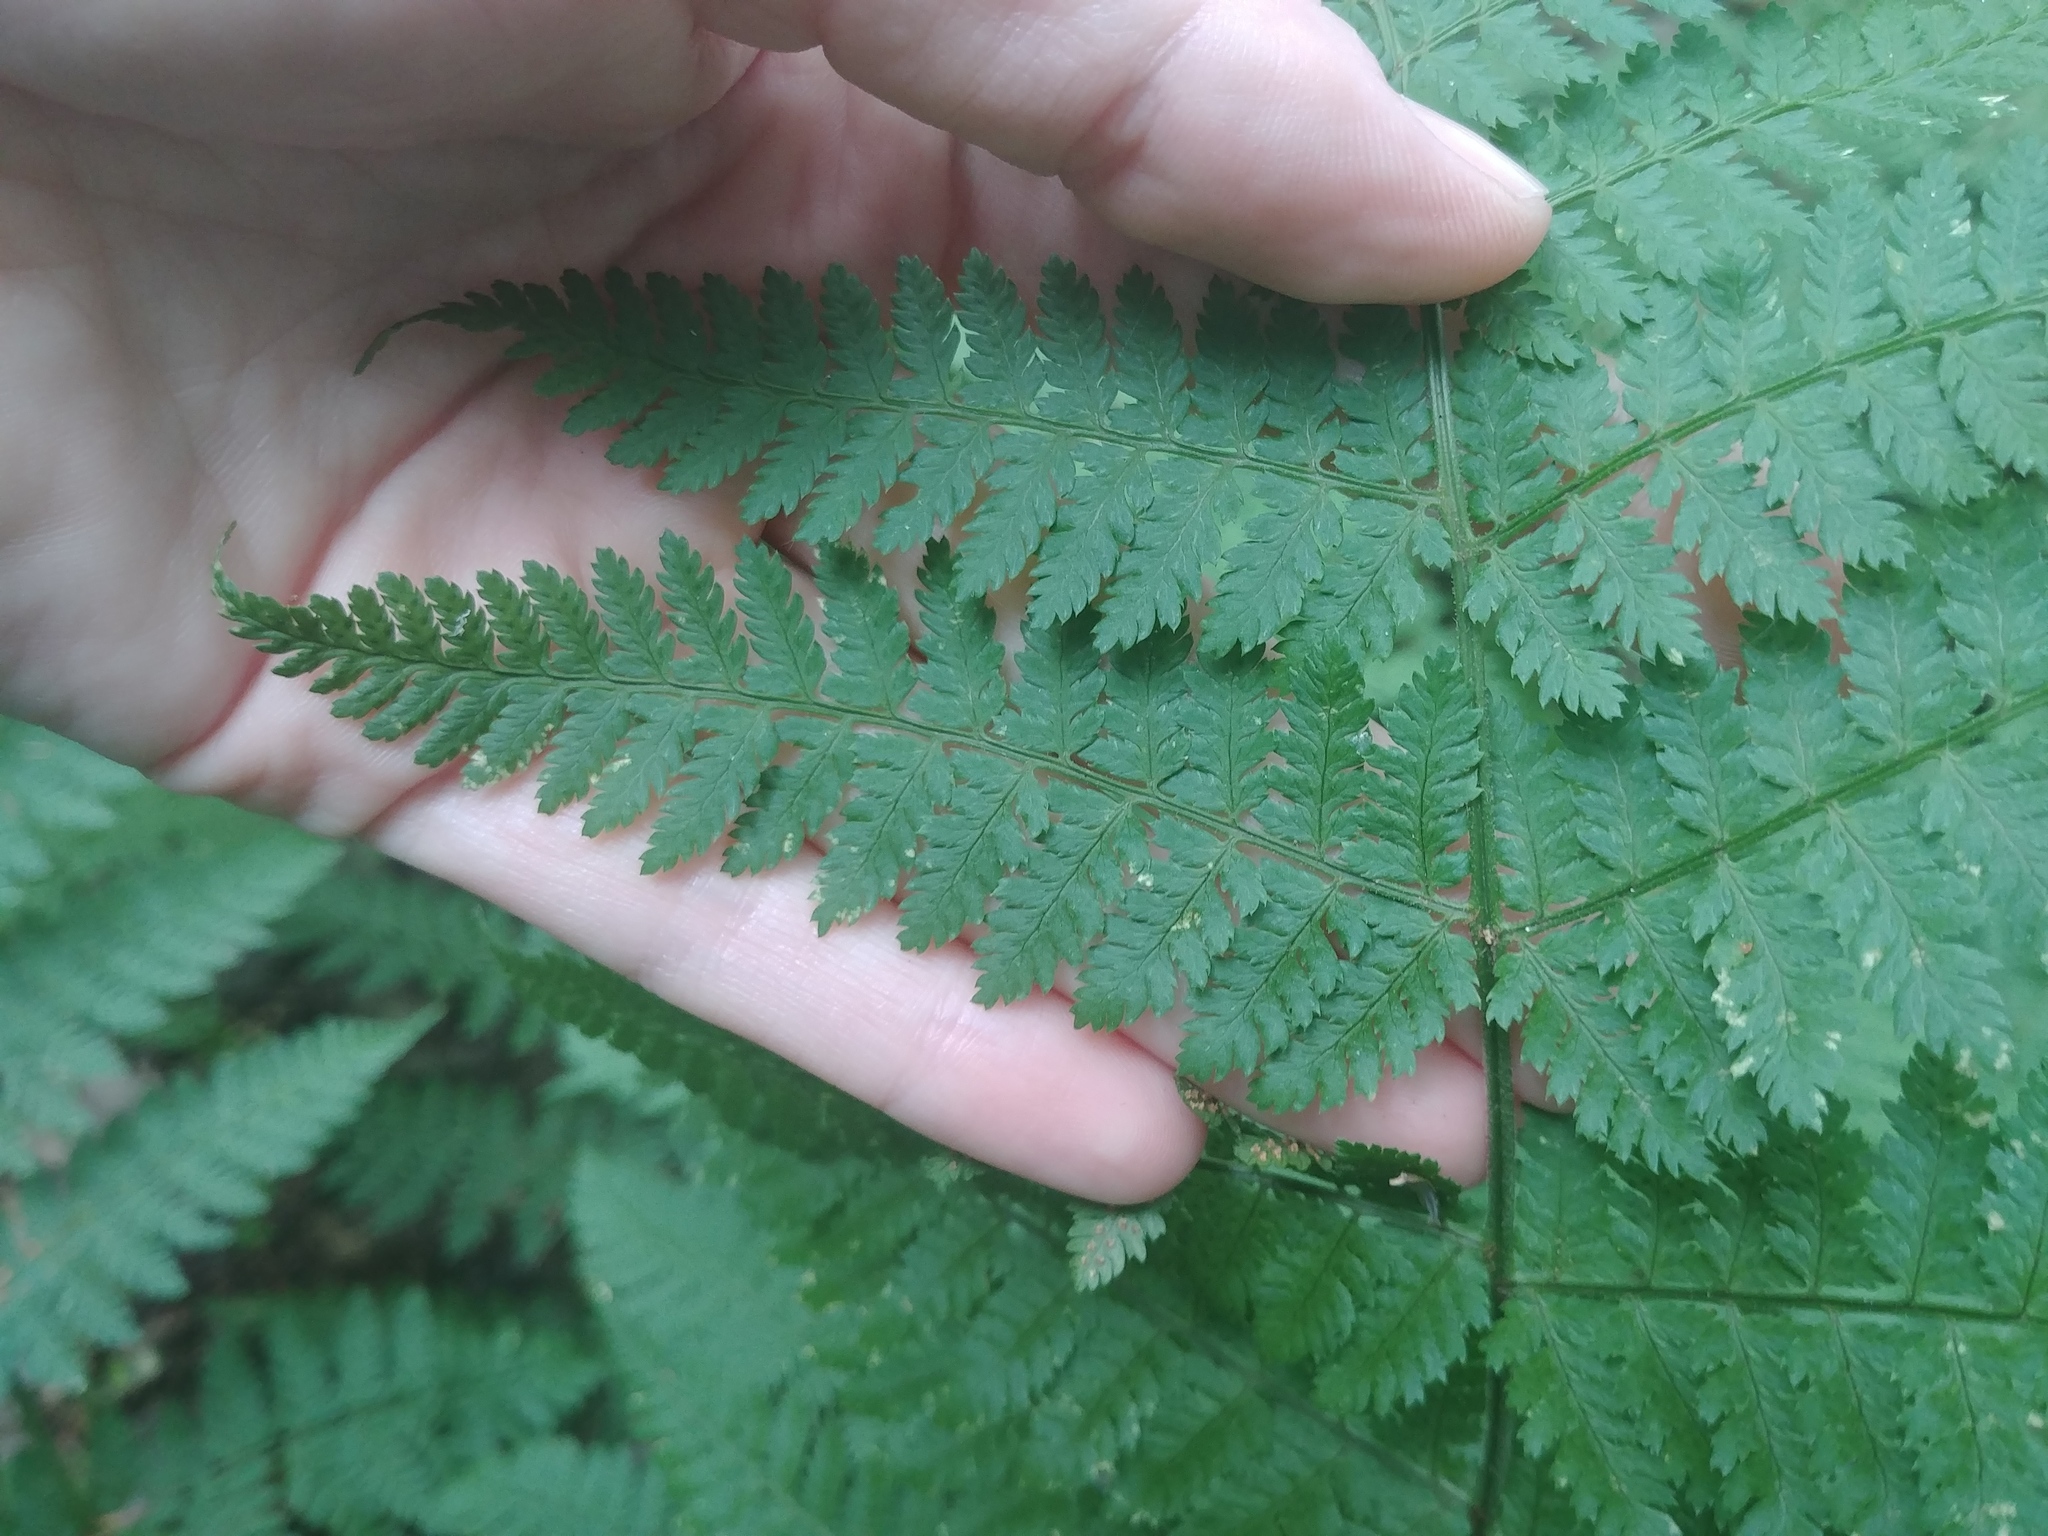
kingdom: Plantae
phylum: Tracheophyta
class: Polypodiopsida
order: Polypodiales
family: Dryopteridaceae
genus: Dryopteris
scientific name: Dryopteris intermedia
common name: Evergreen wood fern
